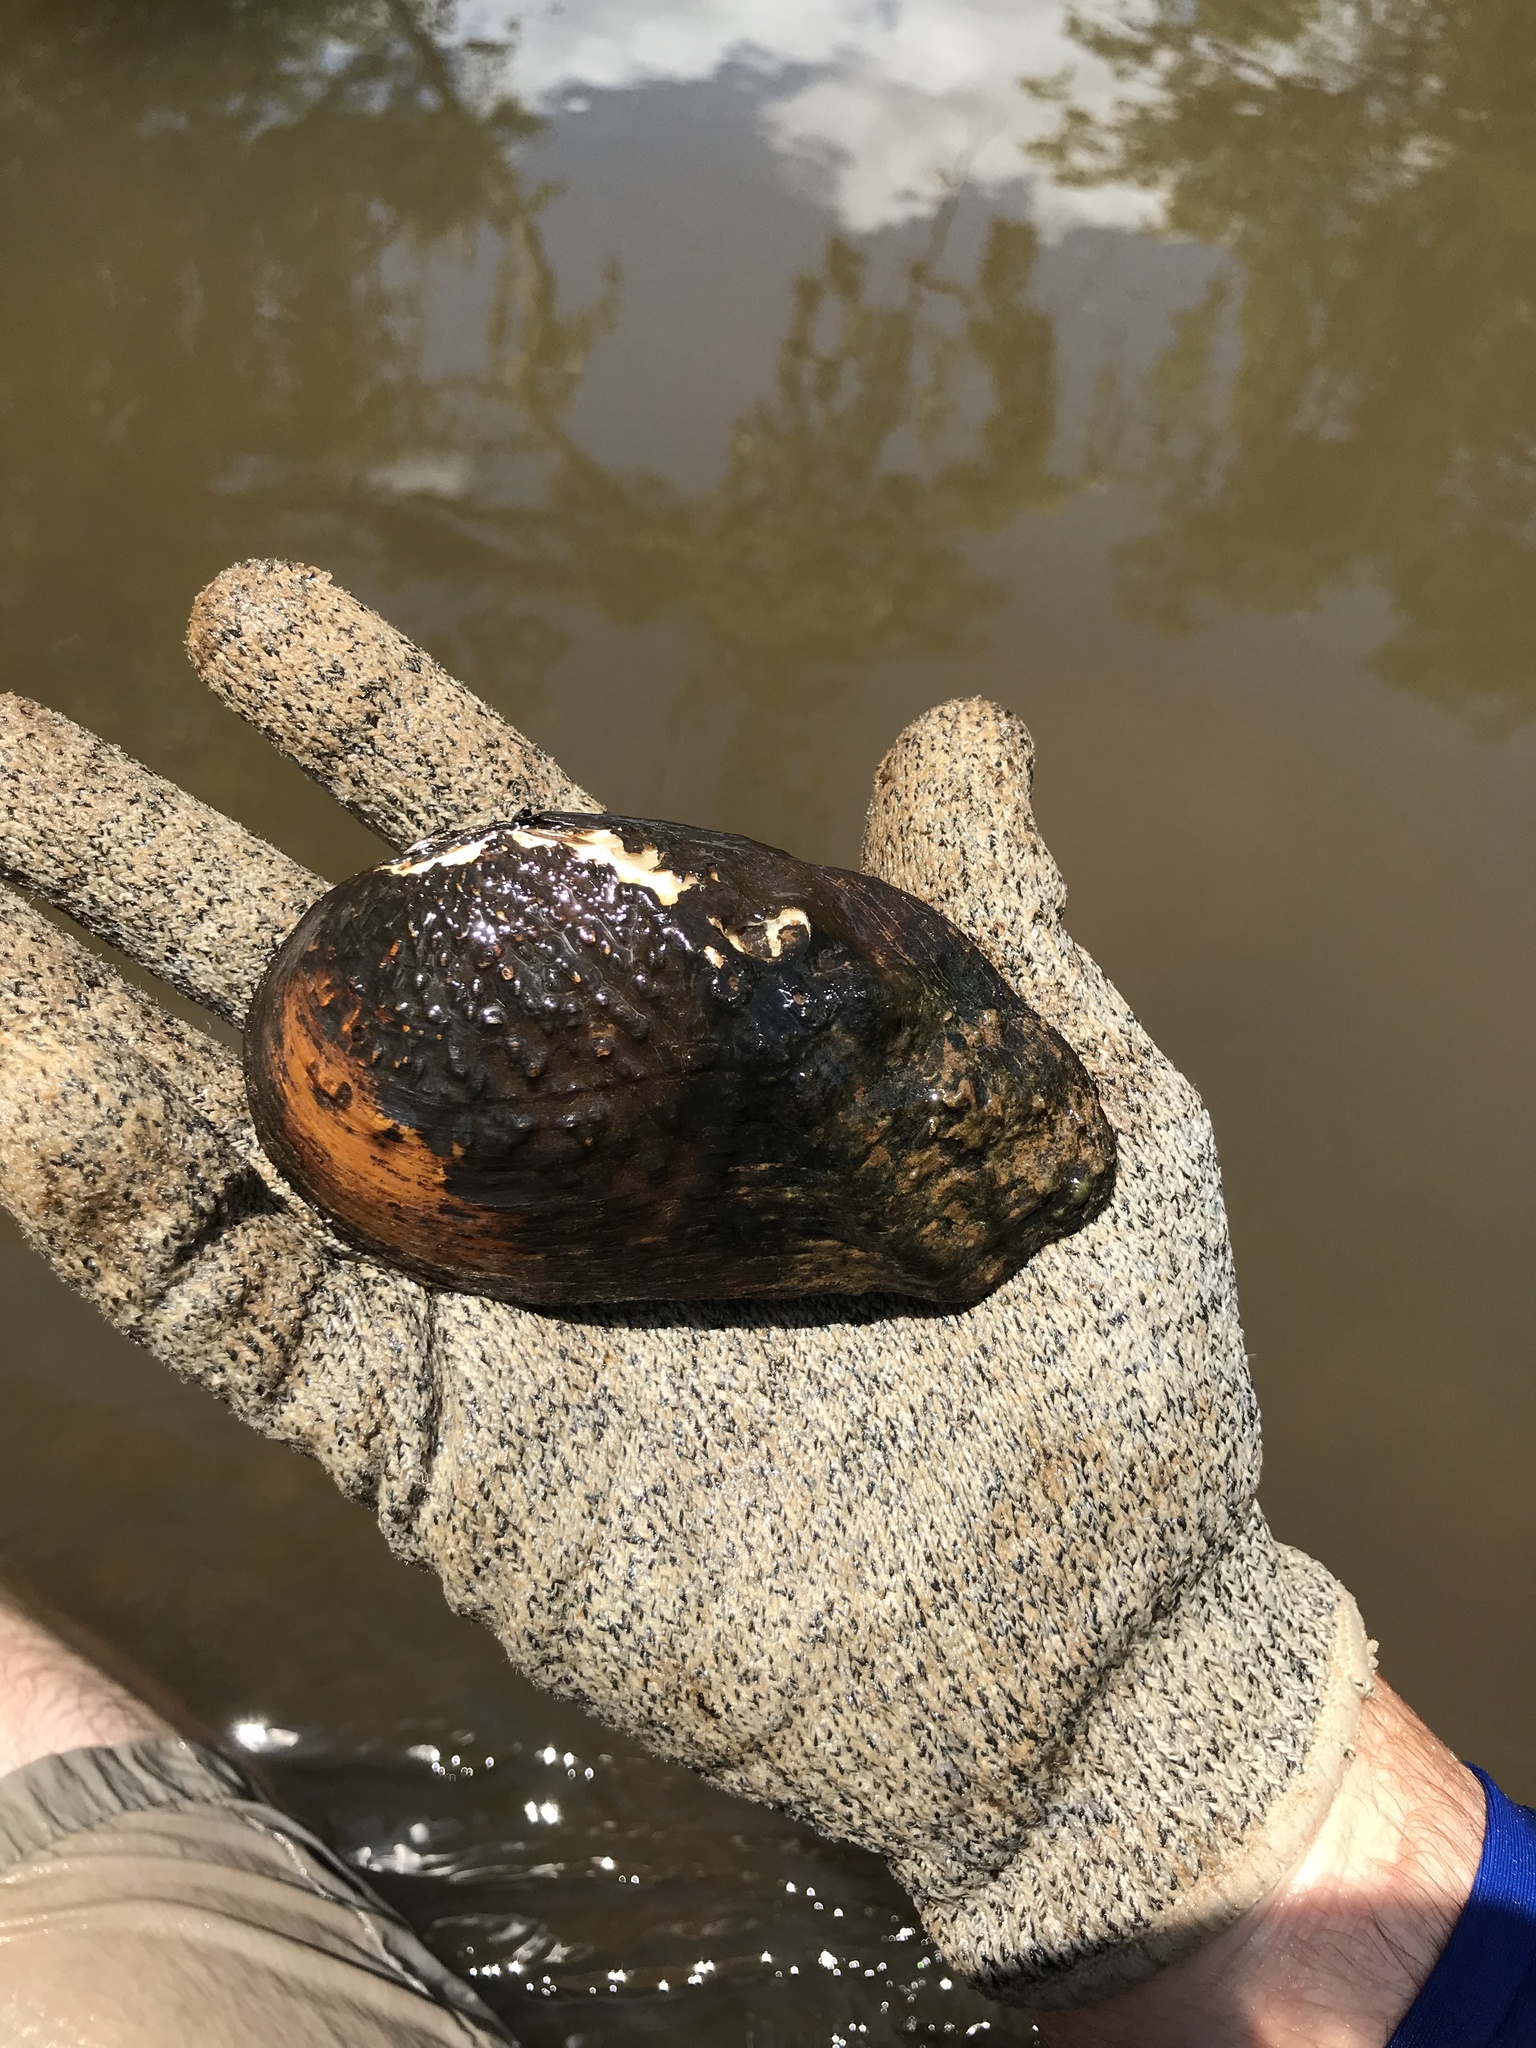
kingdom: Animalia
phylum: Mollusca
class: Bivalvia
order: Unionida
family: Unionidae
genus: Tritogonia
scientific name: Tritogonia verrucosa
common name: Pistolgrip
